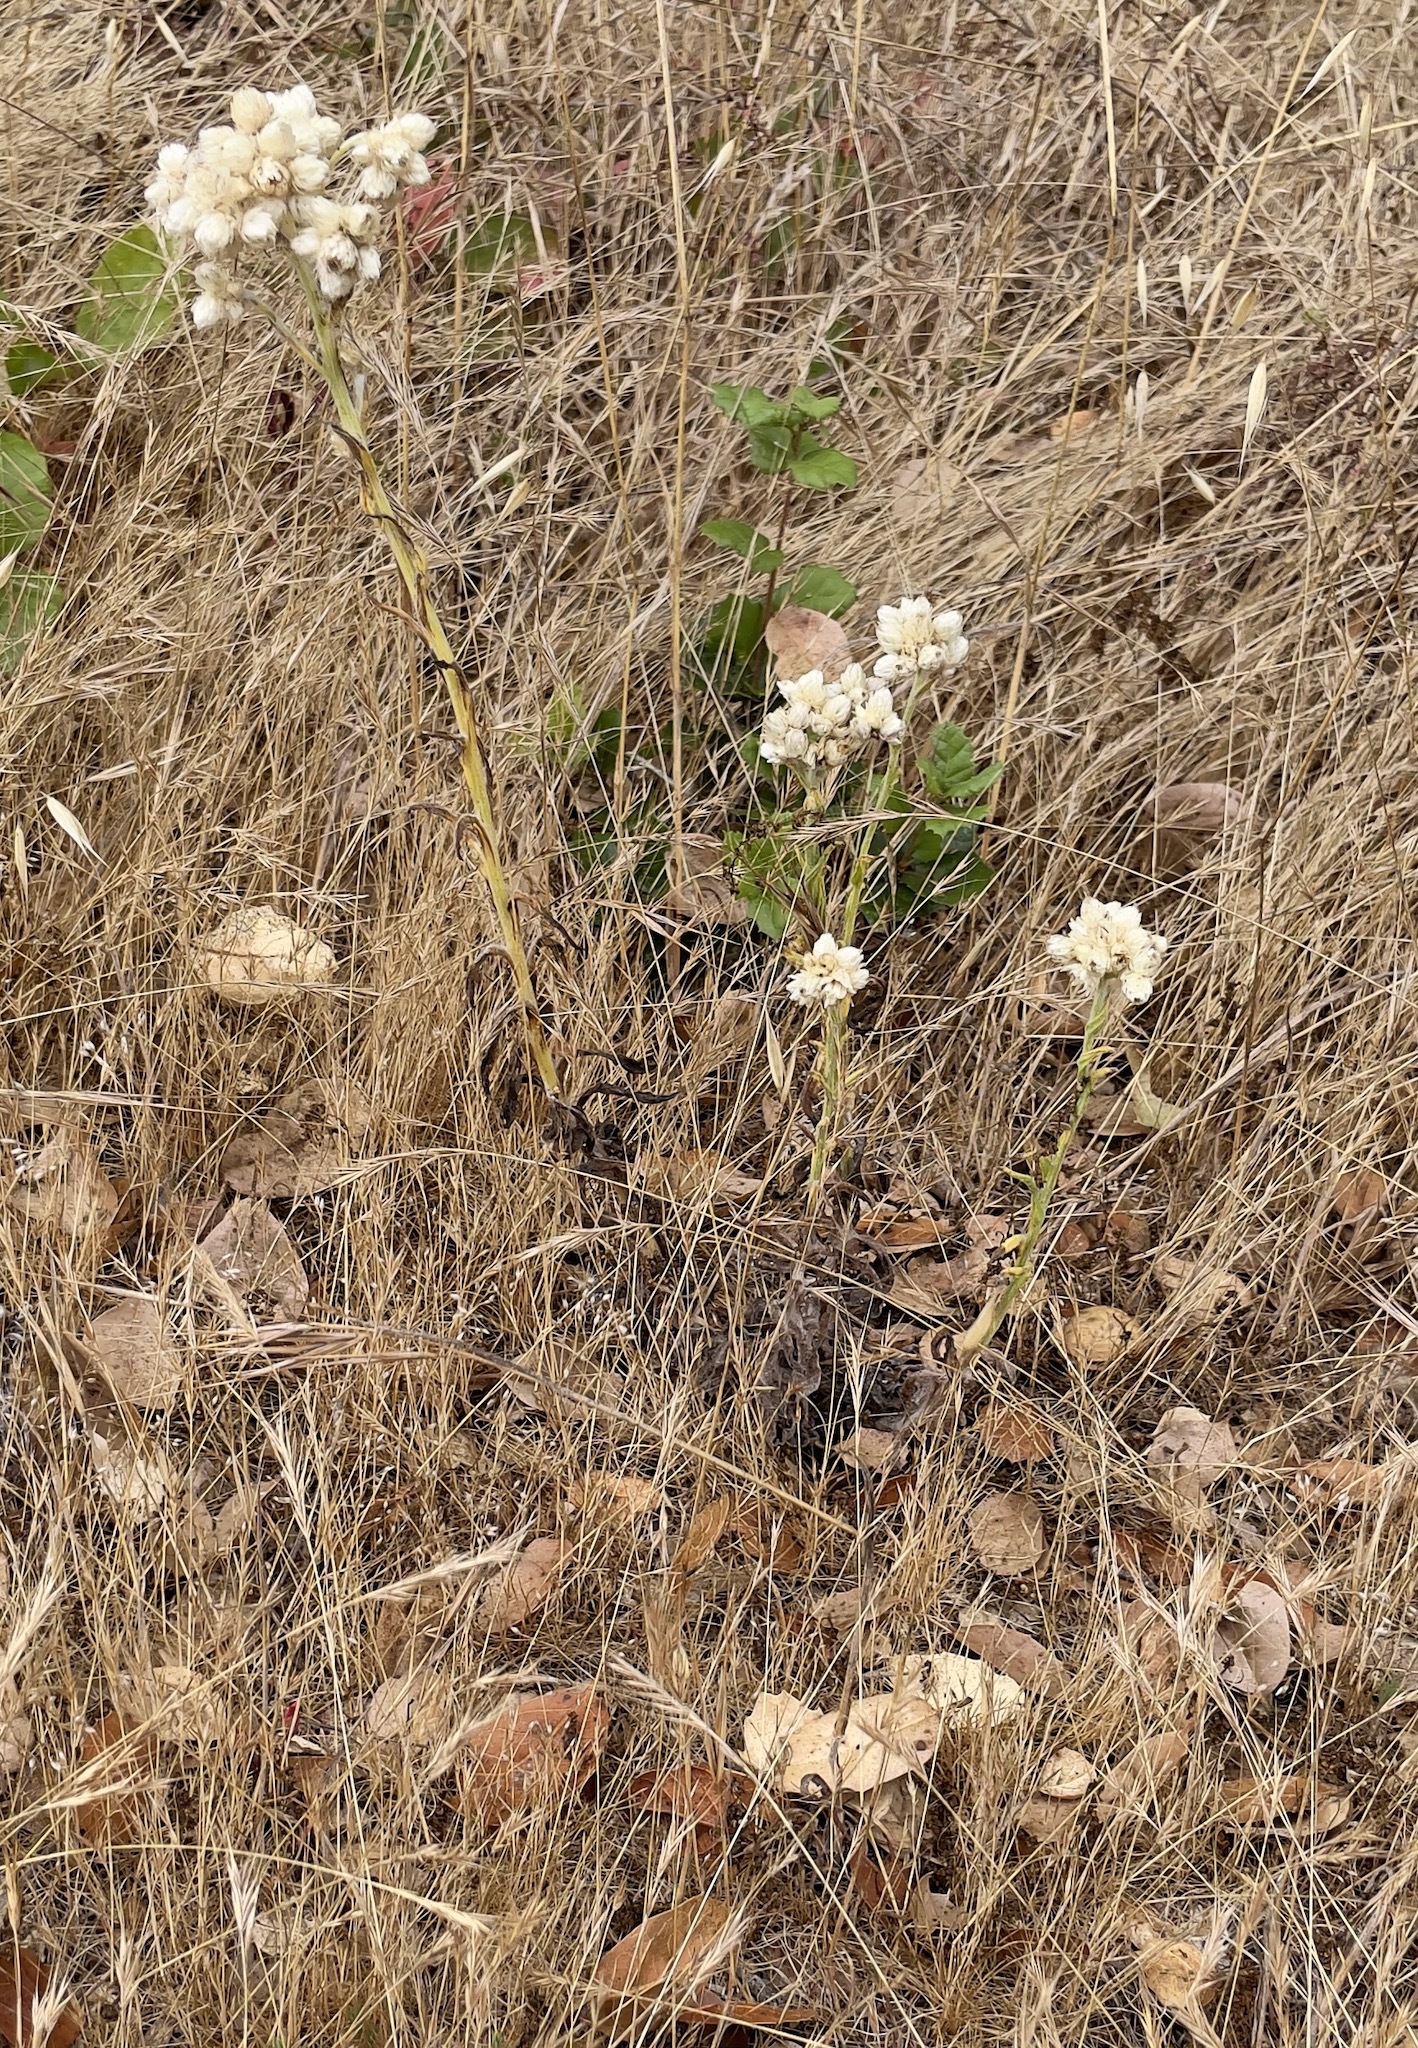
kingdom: Plantae
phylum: Tracheophyta
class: Magnoliopsida
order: Asterales
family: Asteraceae
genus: Pseudognaphalium
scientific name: Pseudognaphalium californicum
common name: California rabbit-tobacco
